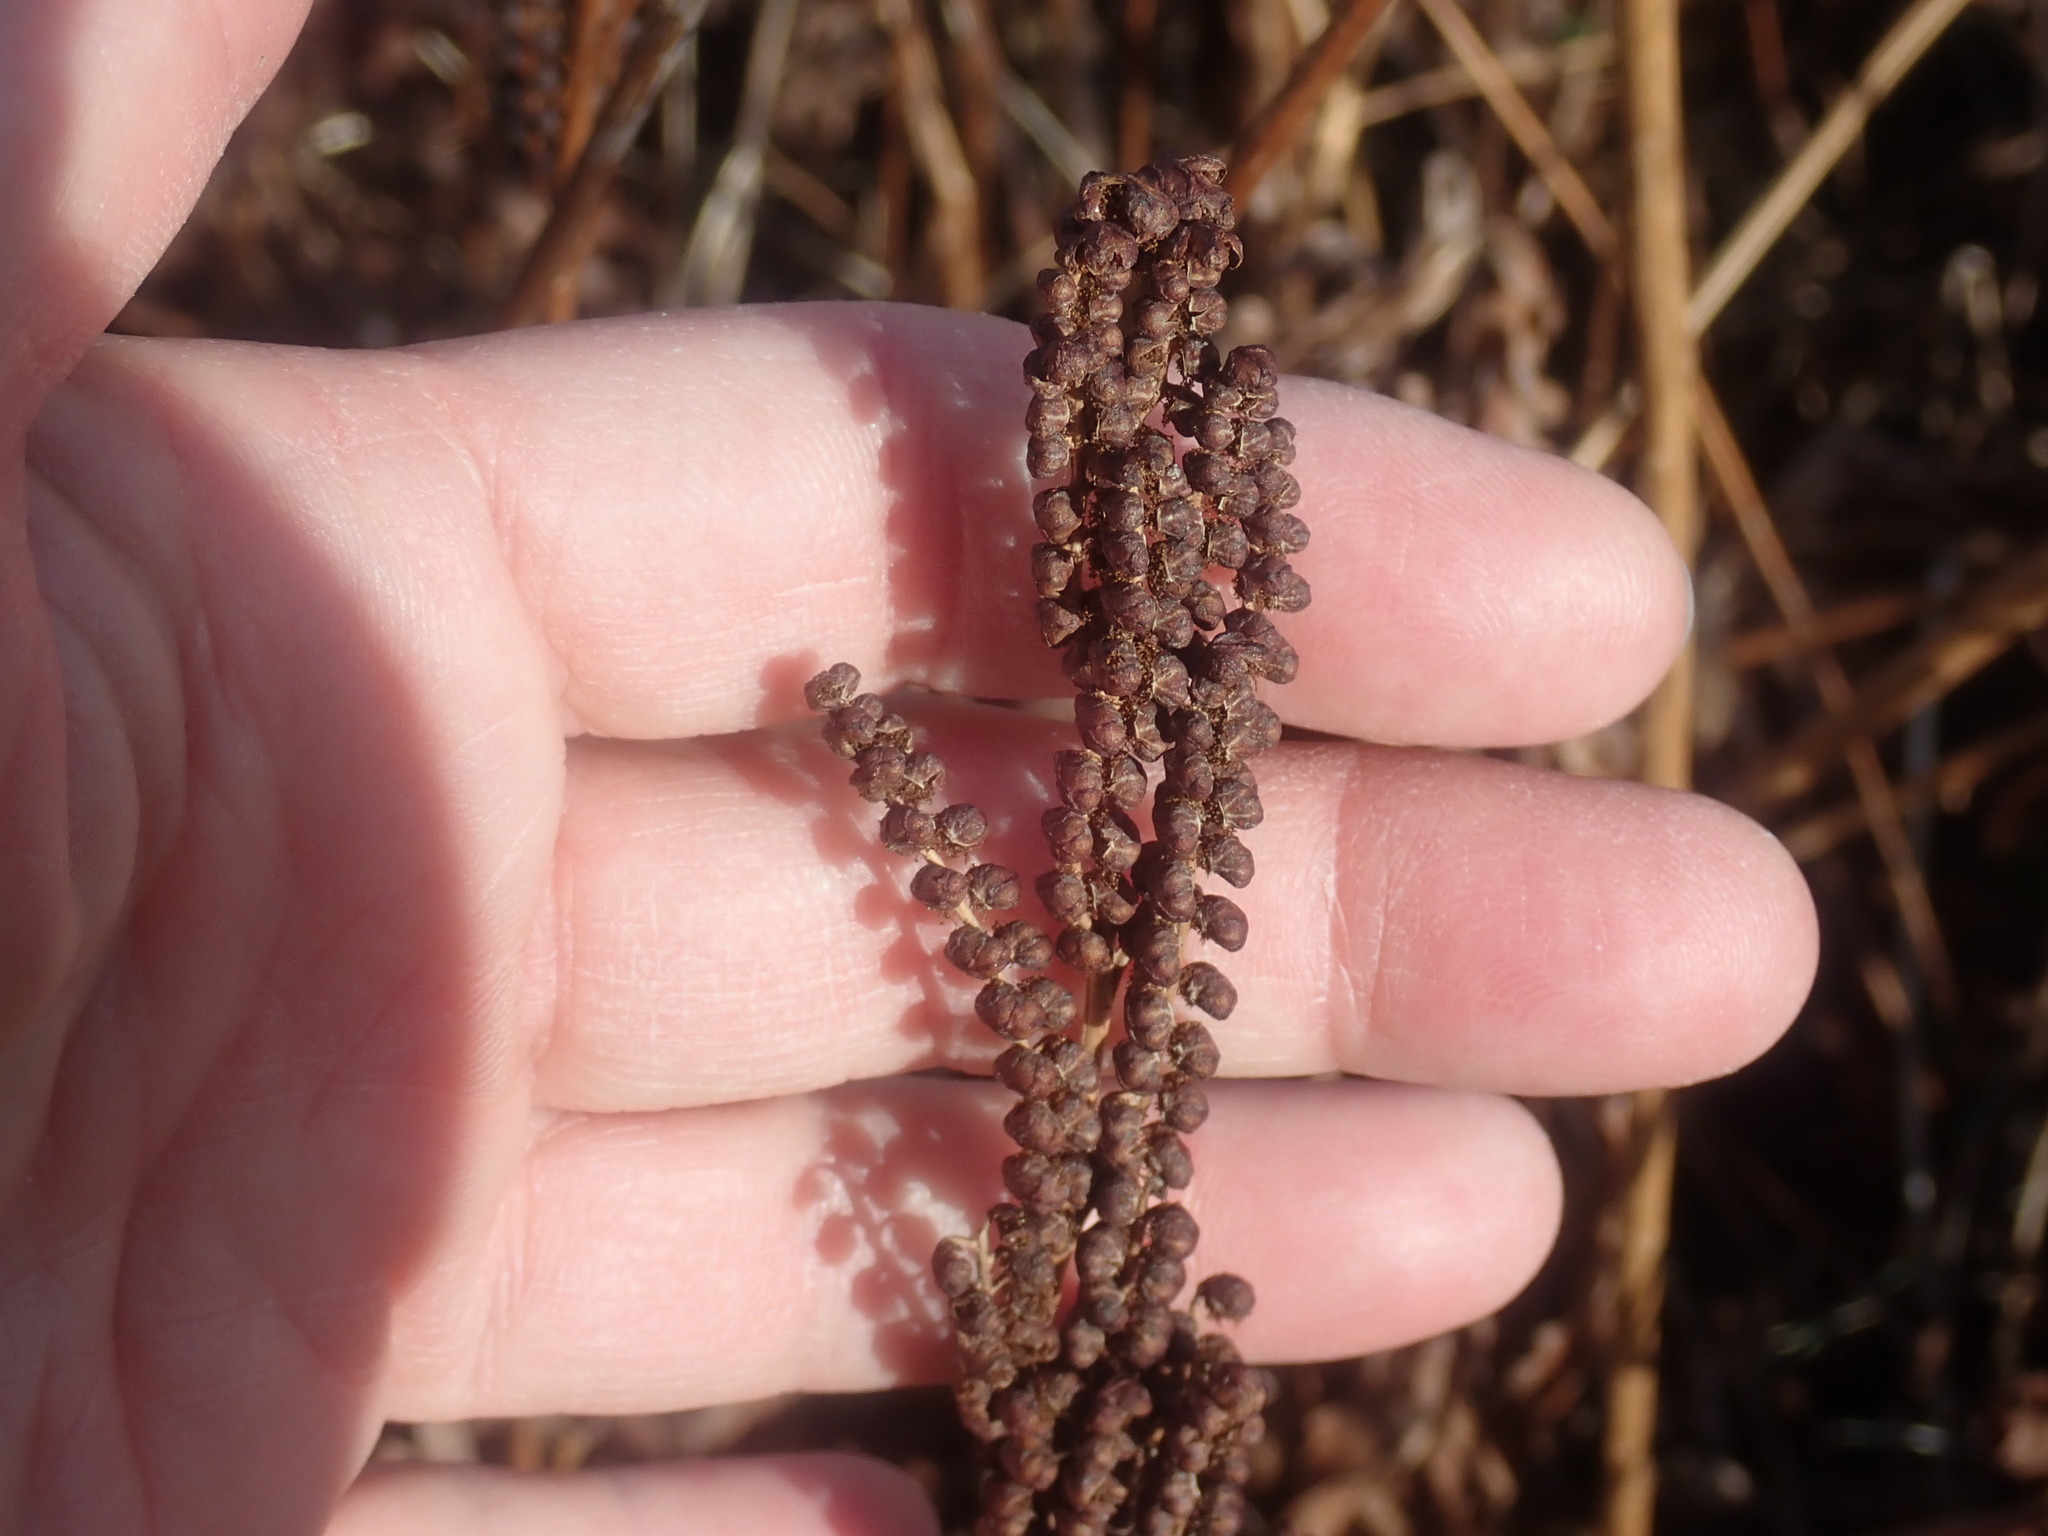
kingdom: Plantae
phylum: Tracheophyta
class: Polypodiopsida
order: Polypodiales
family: Onocleaceae
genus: Onoclea
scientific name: Onoclea sensibilis
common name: Sensitive fern
